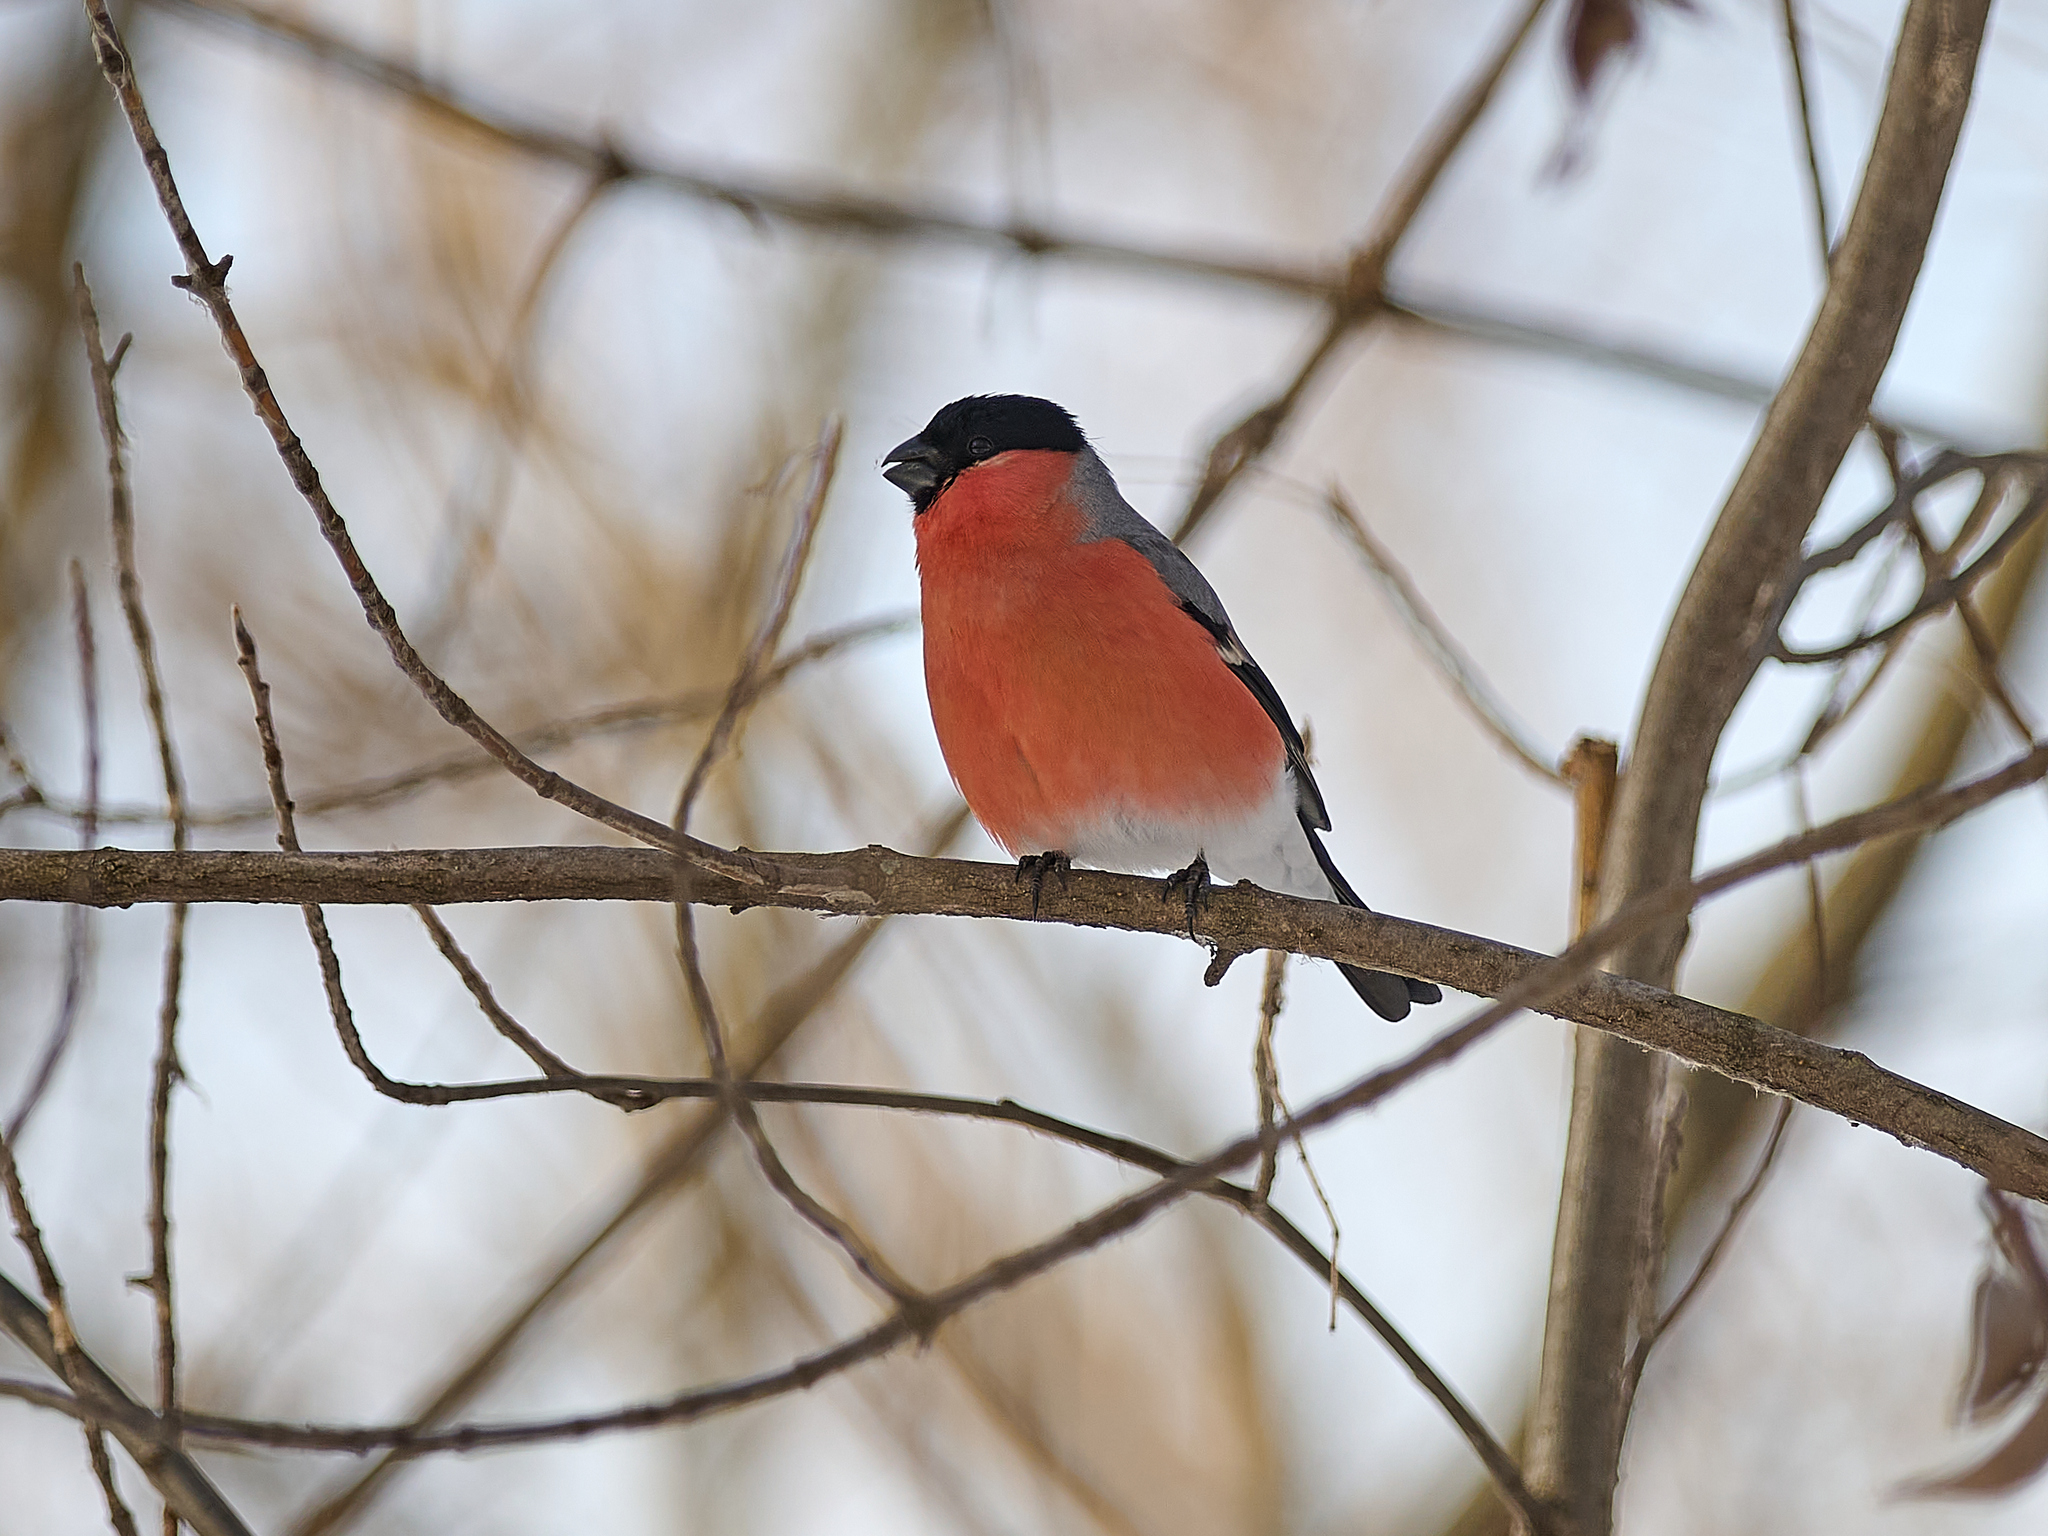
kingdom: Animalia
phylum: Chordata
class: Aves
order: Passeriformes
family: Fringillidae
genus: Pyrrhula
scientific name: Pyrrhula pyrrhula
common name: Eurasian bullfinch
